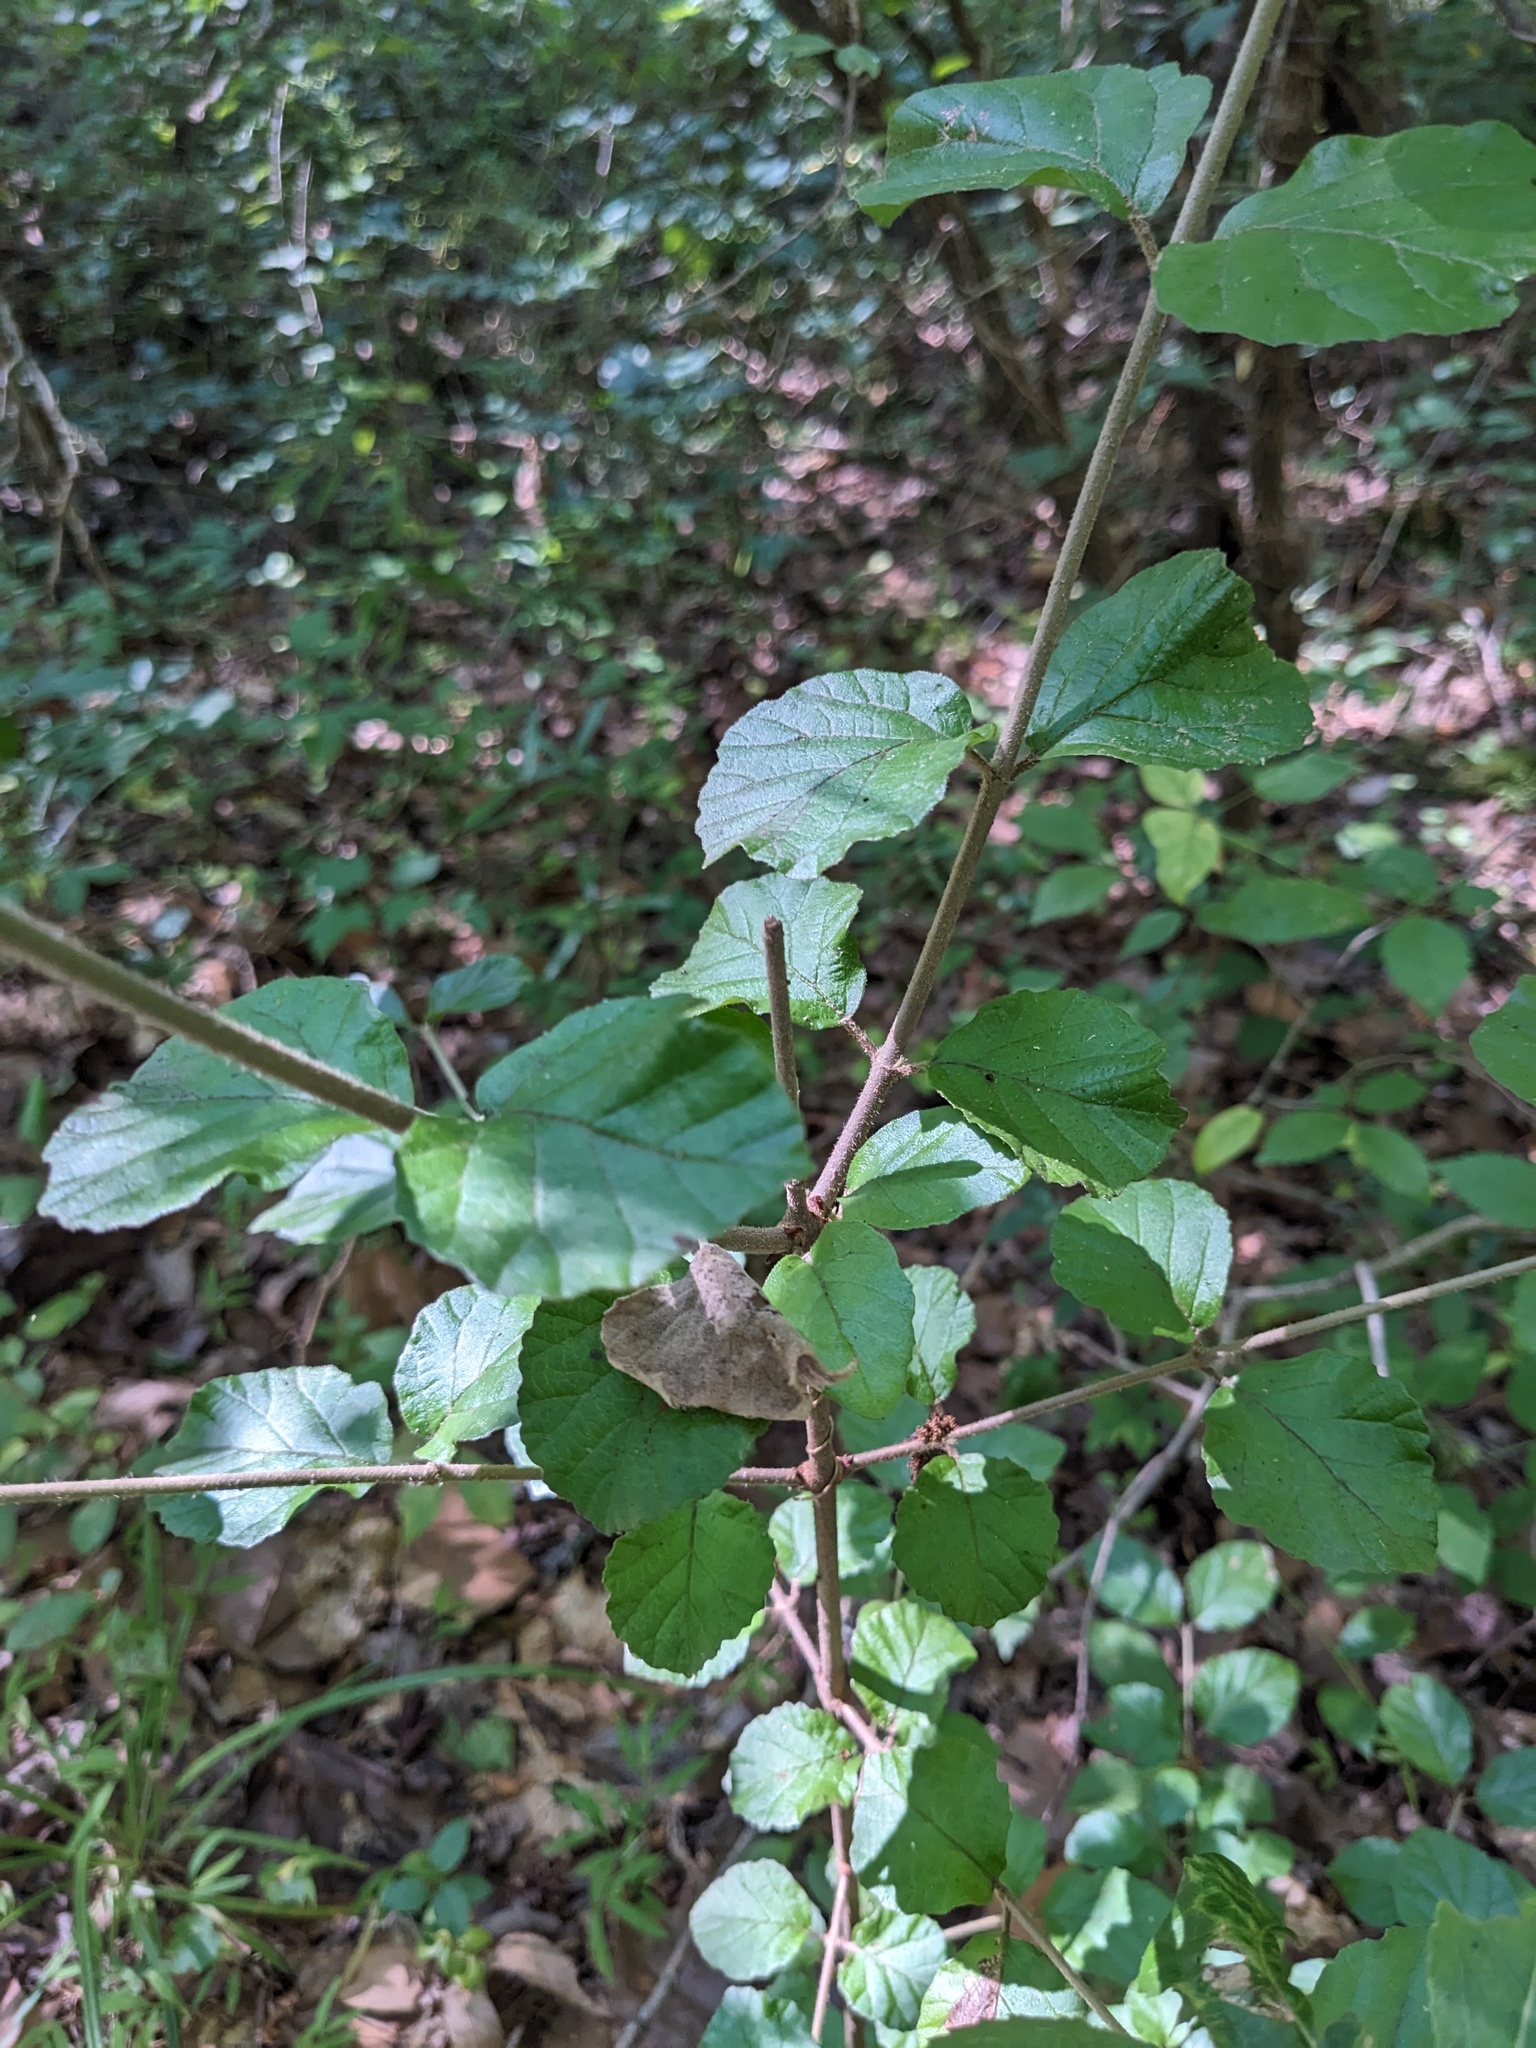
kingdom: Plantae
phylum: Tracheophyta
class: Magnoliopsida
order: Dipsacales
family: Viburnaceae
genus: Viburnum
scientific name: Viburnum dilatatum
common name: Linden arrowwood
